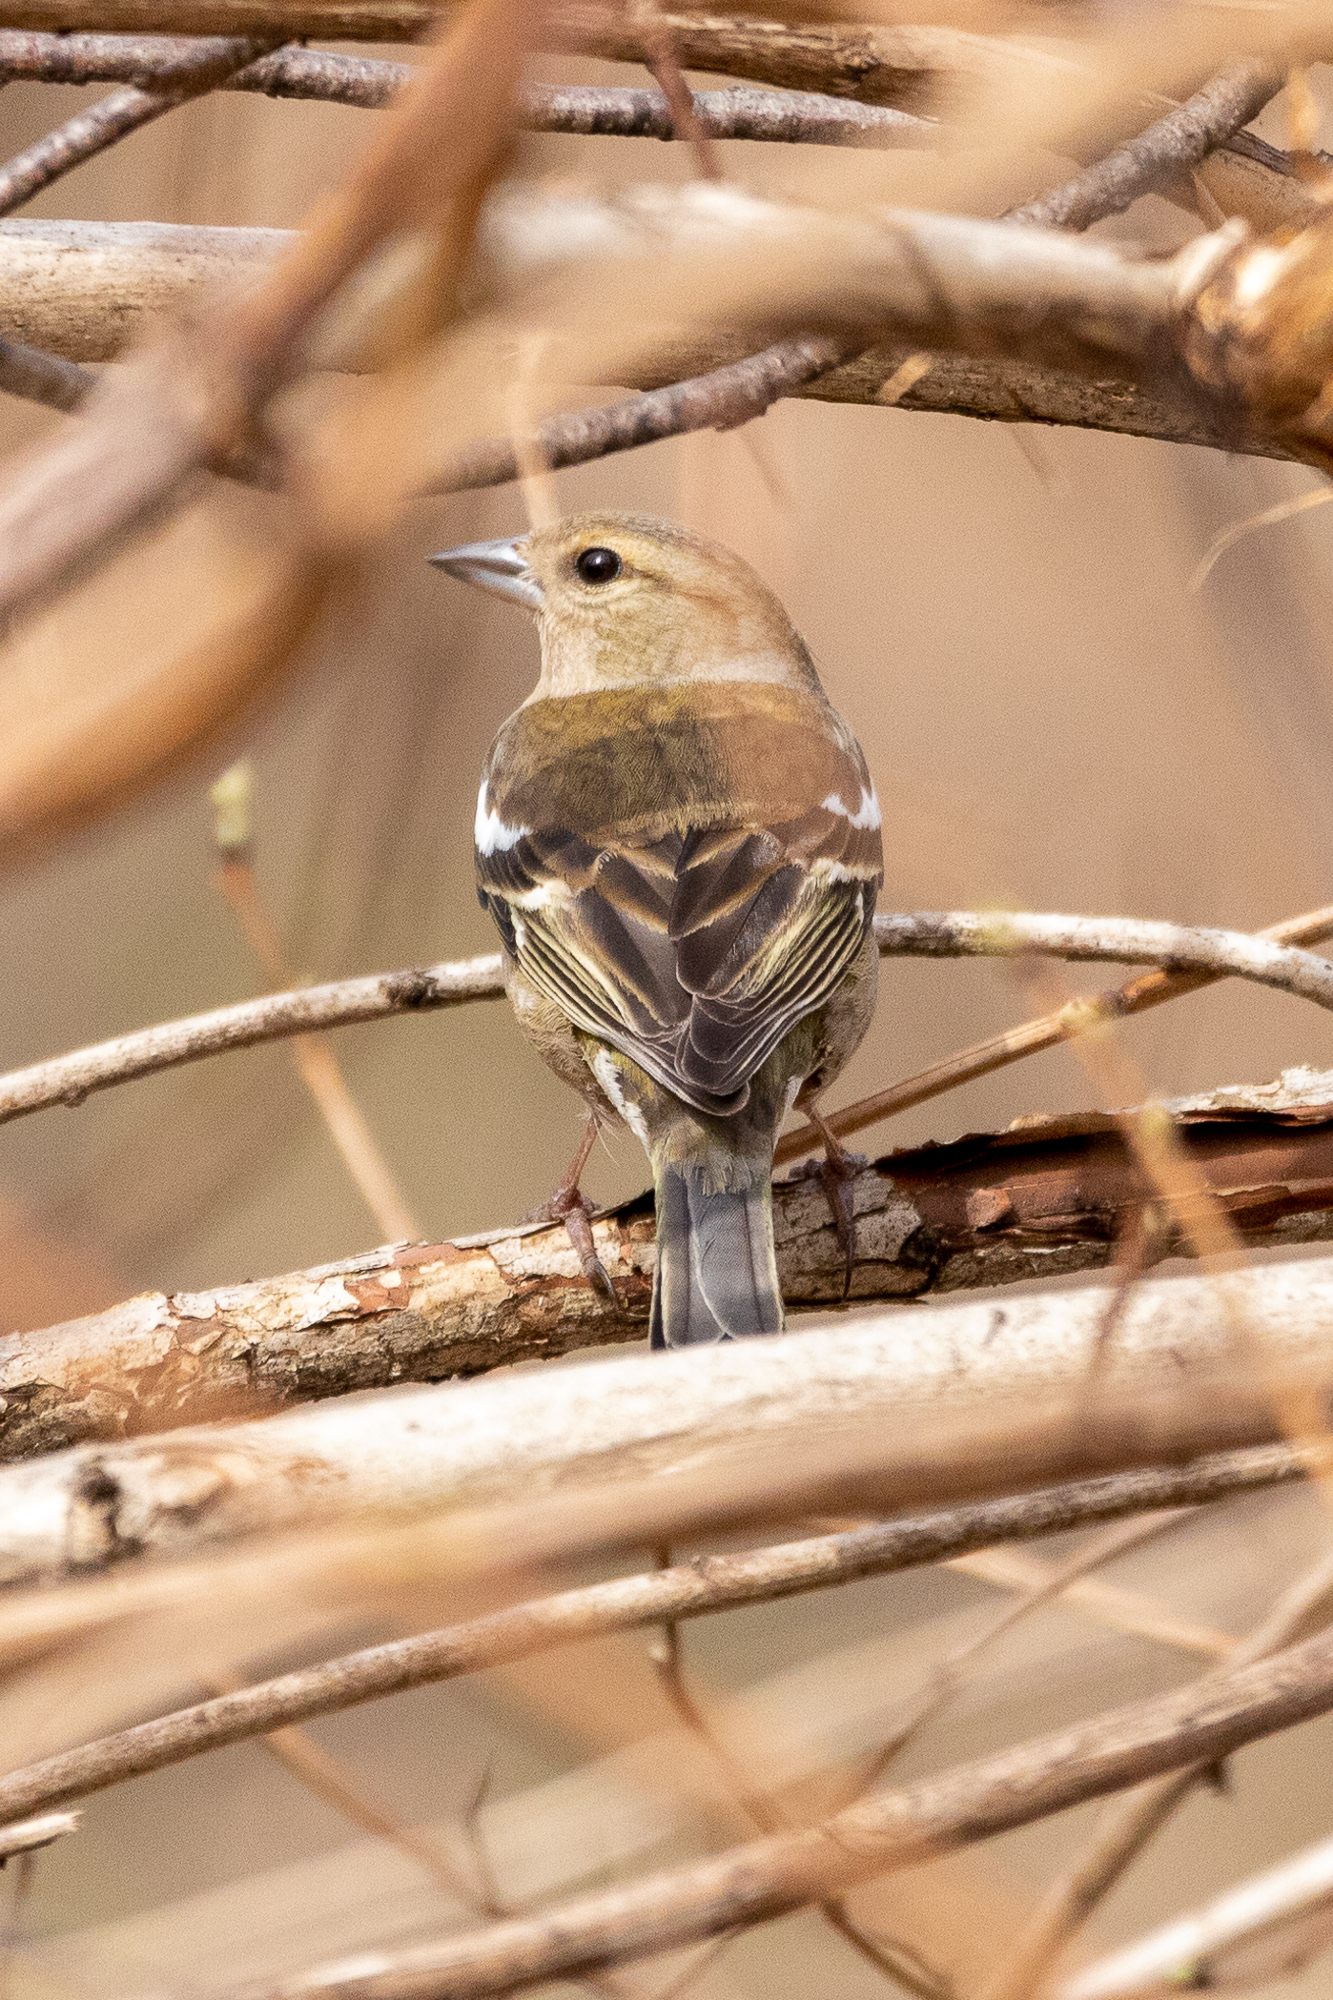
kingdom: Animalia
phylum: Chordata
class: Aves
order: Passeriformes
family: Fringillidae
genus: Fringilla
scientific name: Fringilla coelebs
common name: Common chaffinch
